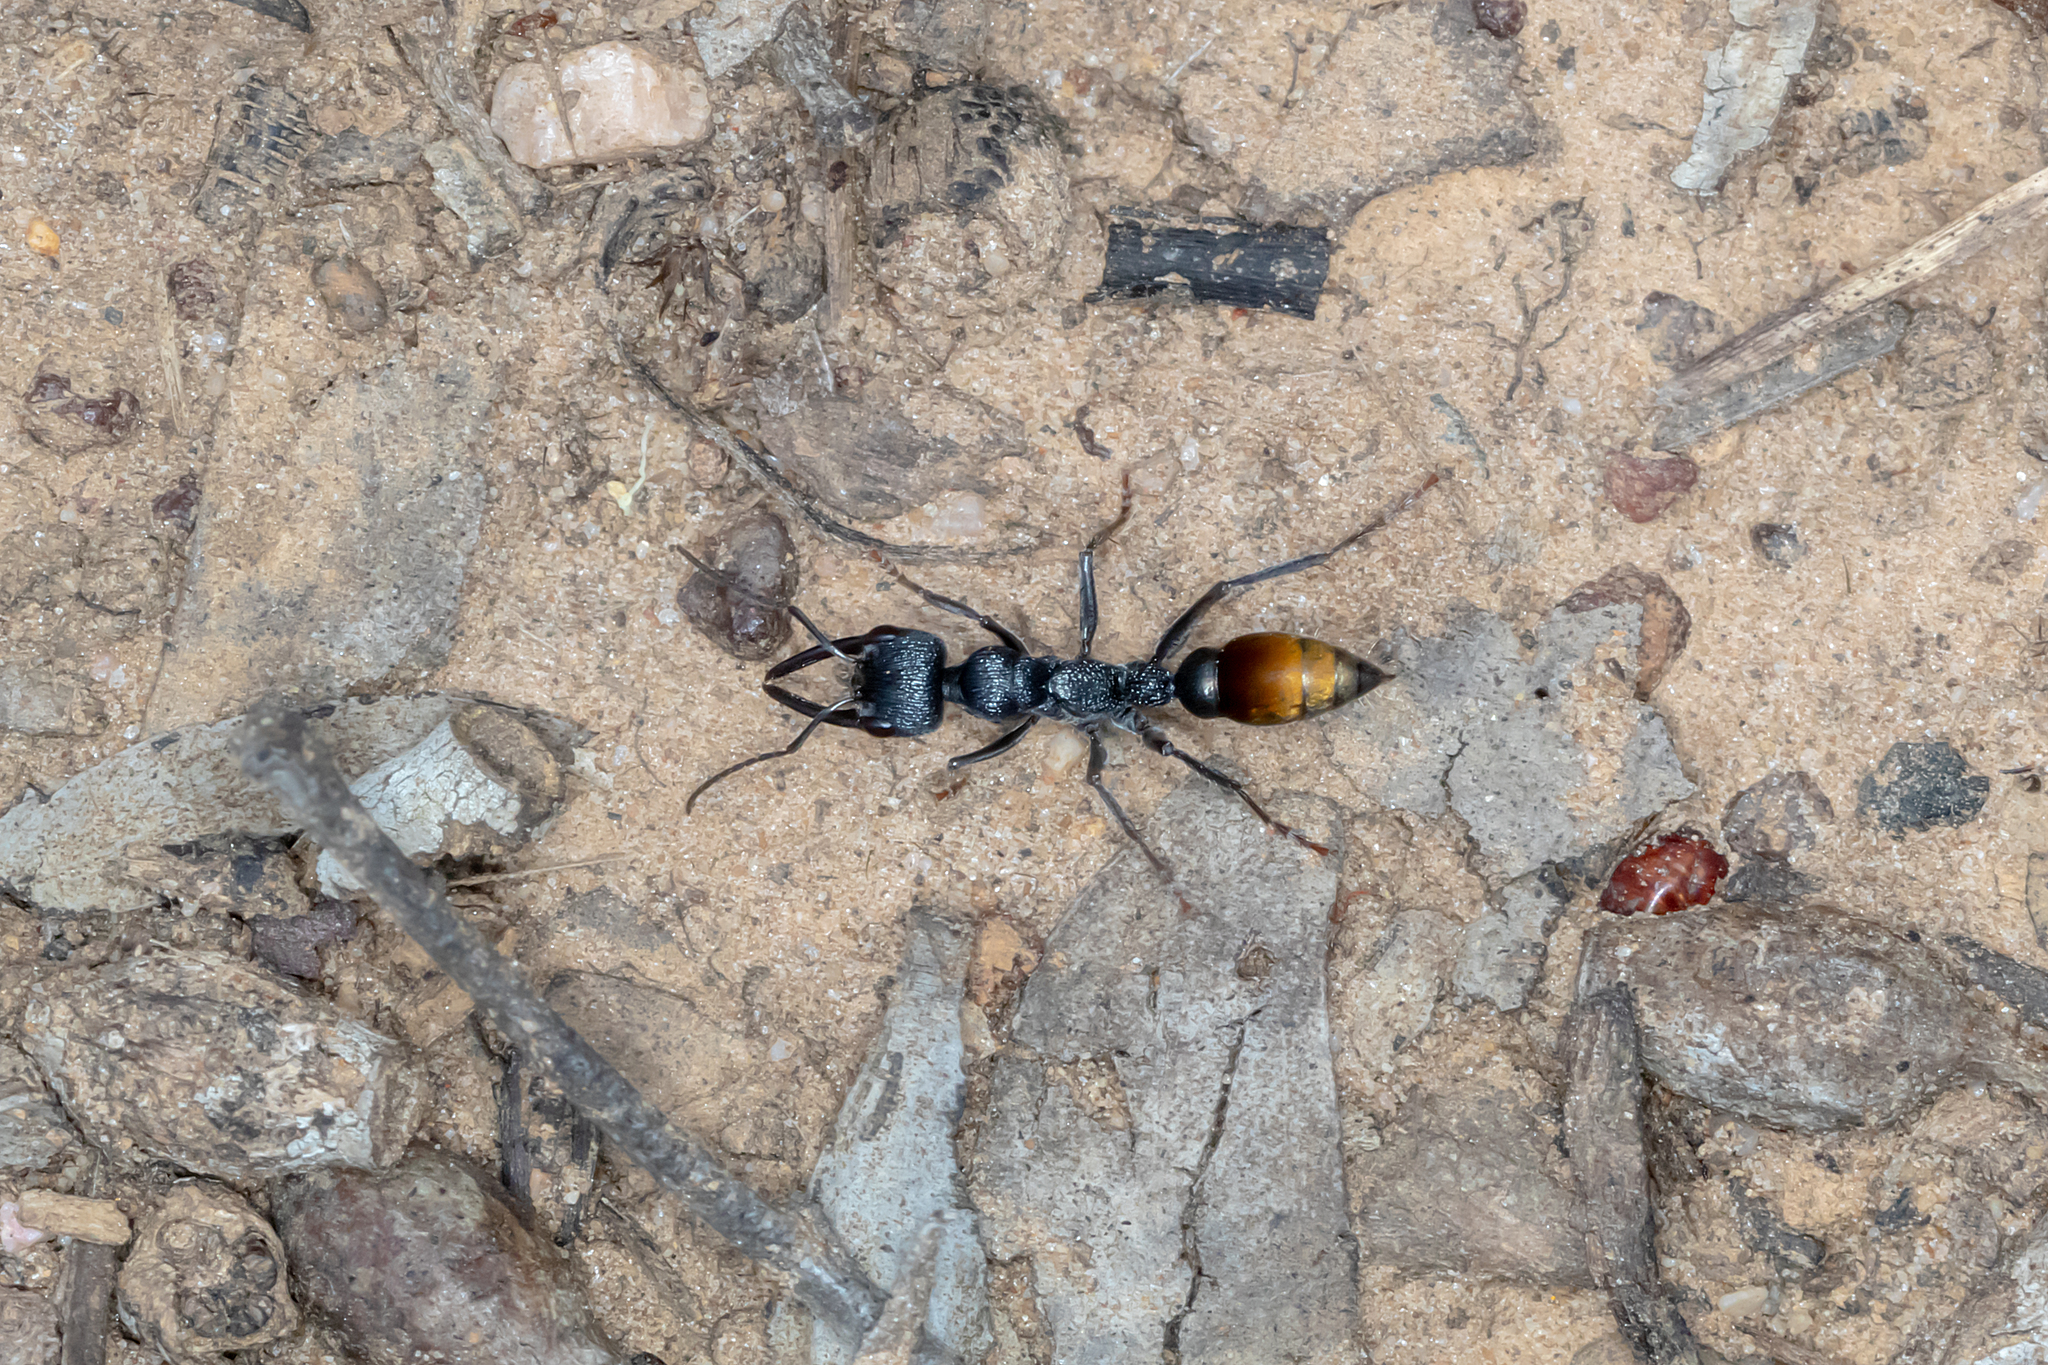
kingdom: Animalia
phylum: Arthropoda
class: Insecta
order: Hymenoptera
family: Formicidae
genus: Myrmecia
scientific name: Myrmecia mandibularis
